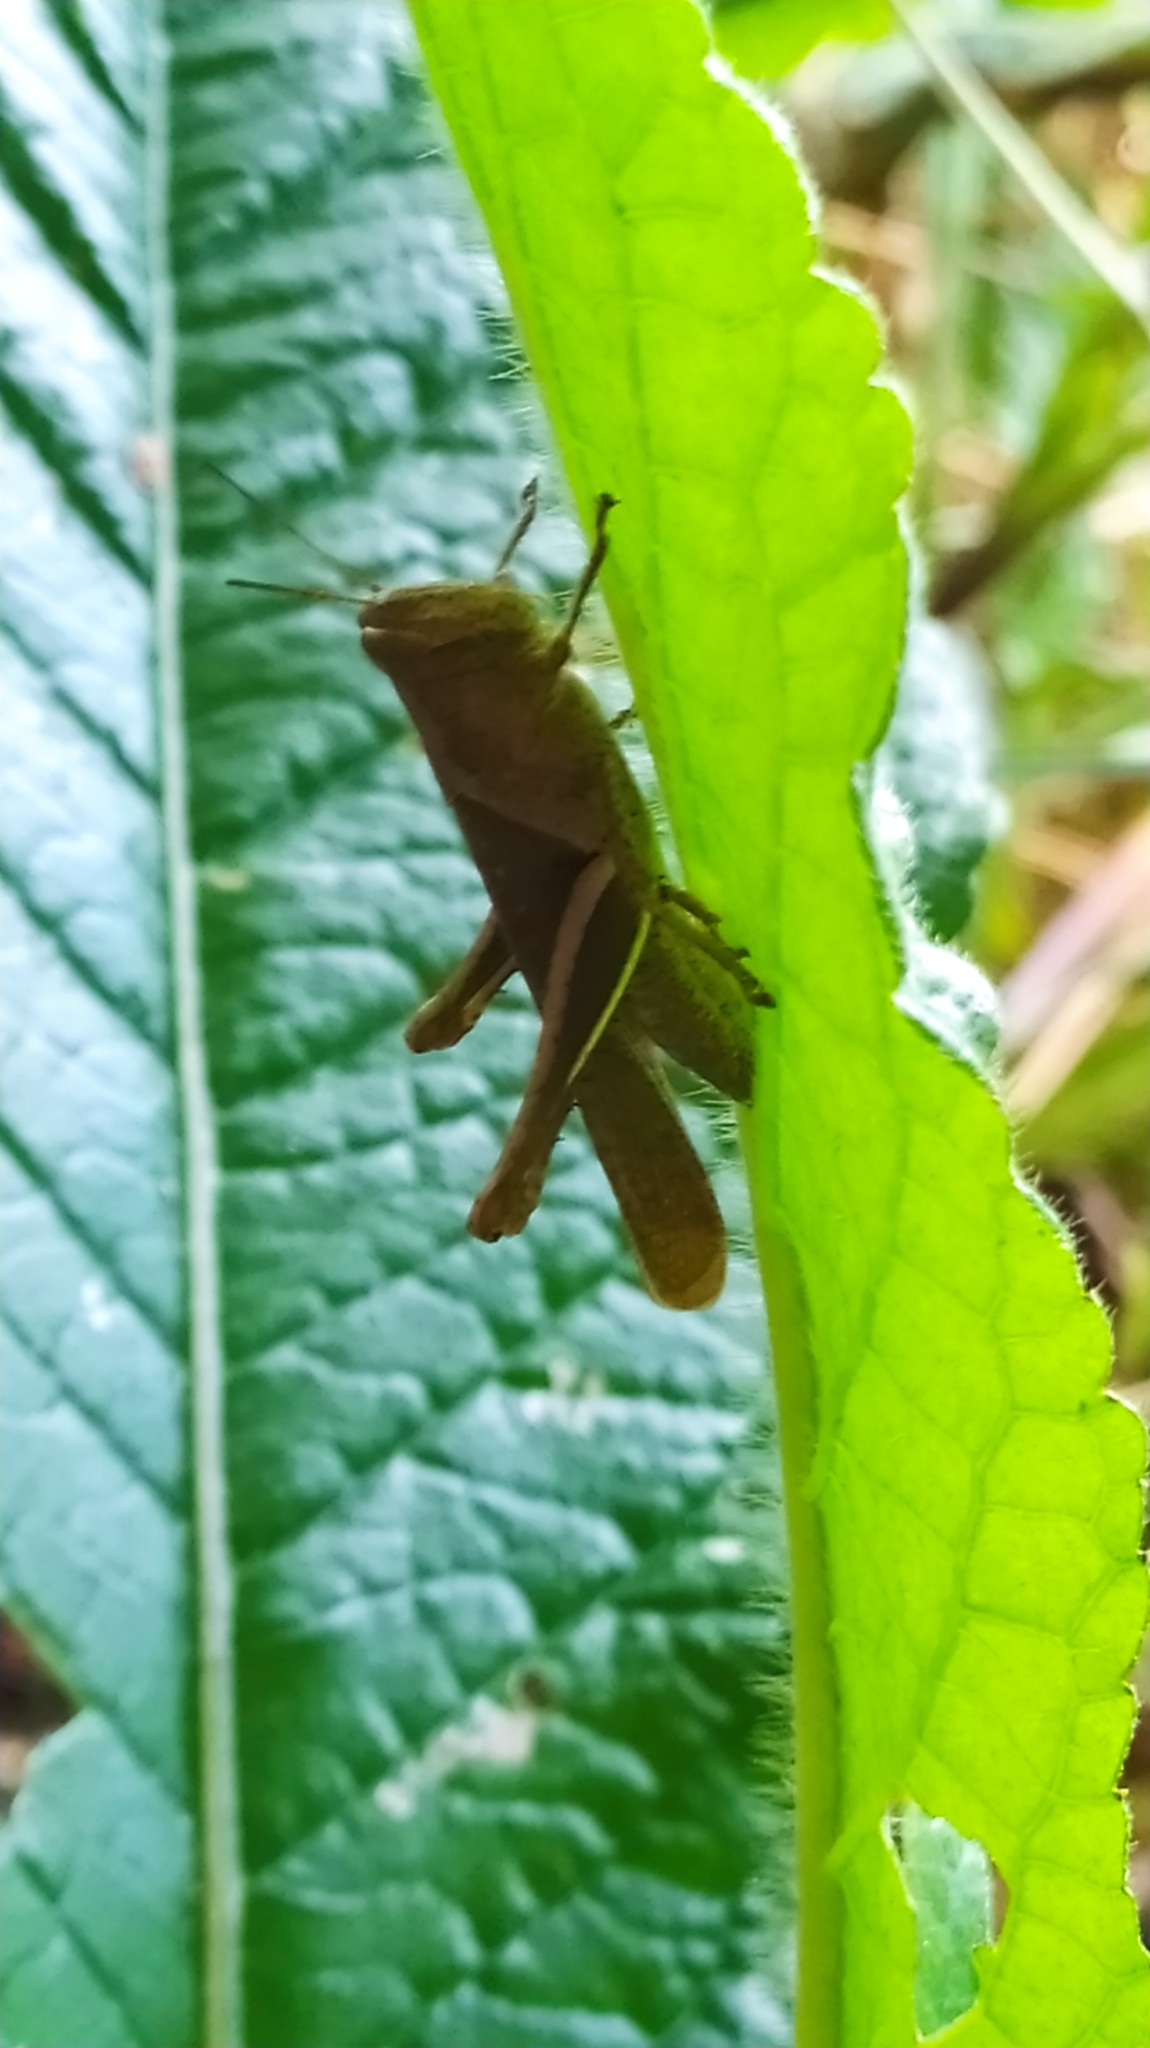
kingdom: Animalia
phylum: Arthropoda
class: Insecta
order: Orthoptera
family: Acrididae
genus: Abracris
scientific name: Abracris flavolineata
